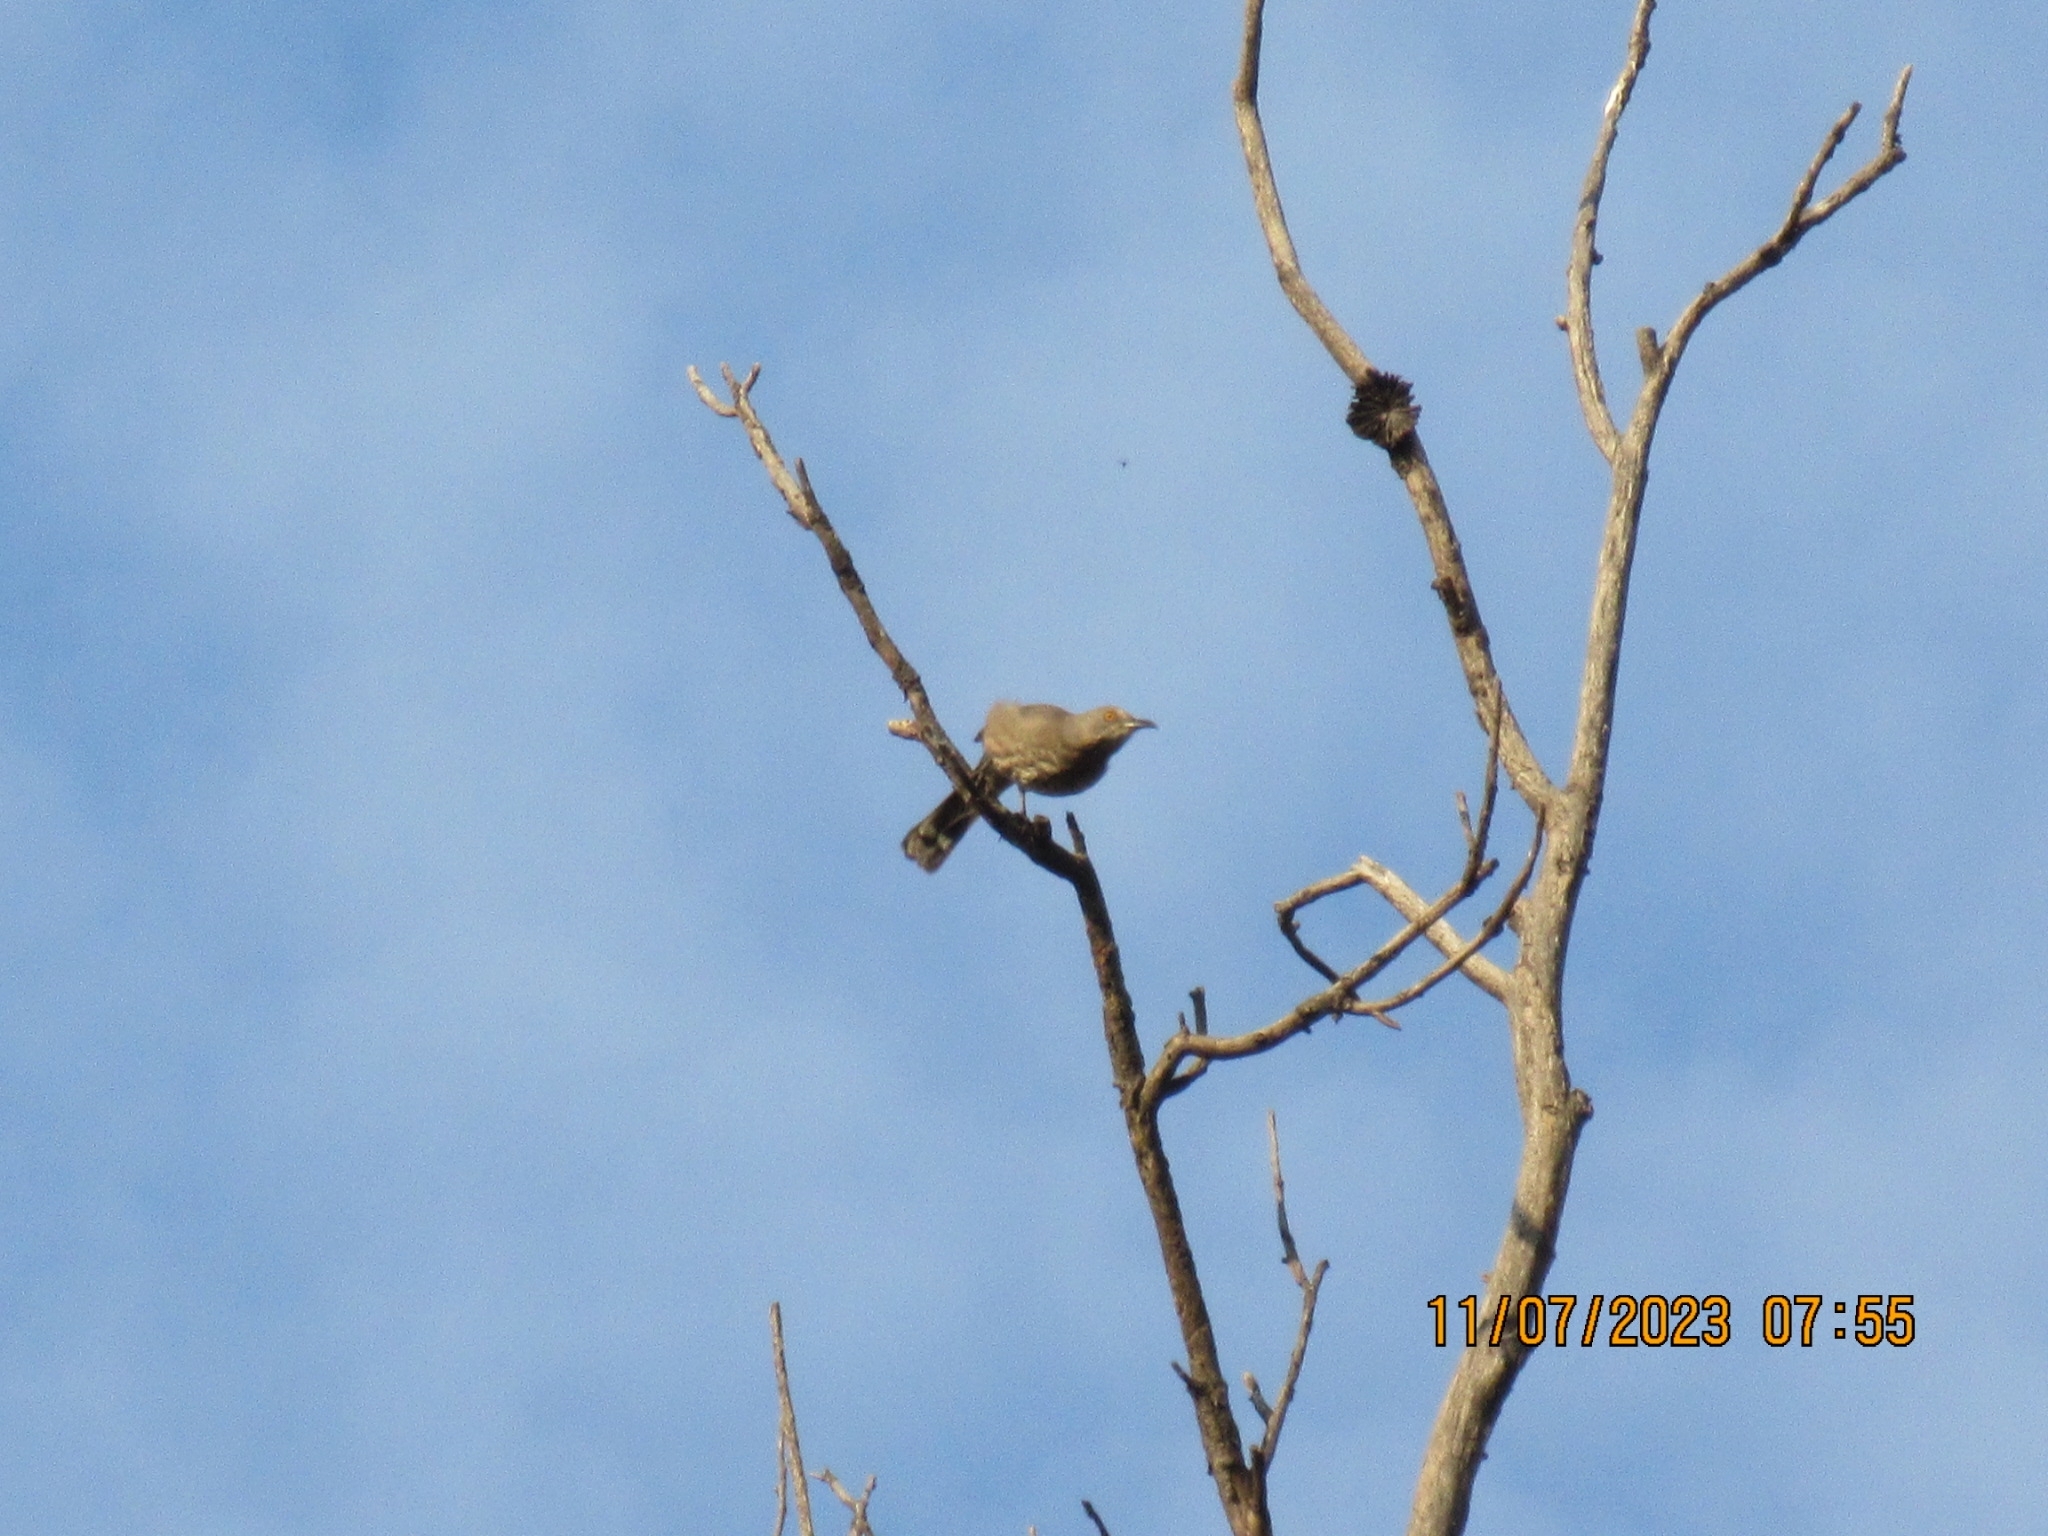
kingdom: Animalia
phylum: Chordata
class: Aves
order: Passeriformes
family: Mimidae
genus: Toxostoma
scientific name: Toxostoma curvirostre
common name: Curve-billed thrasher
